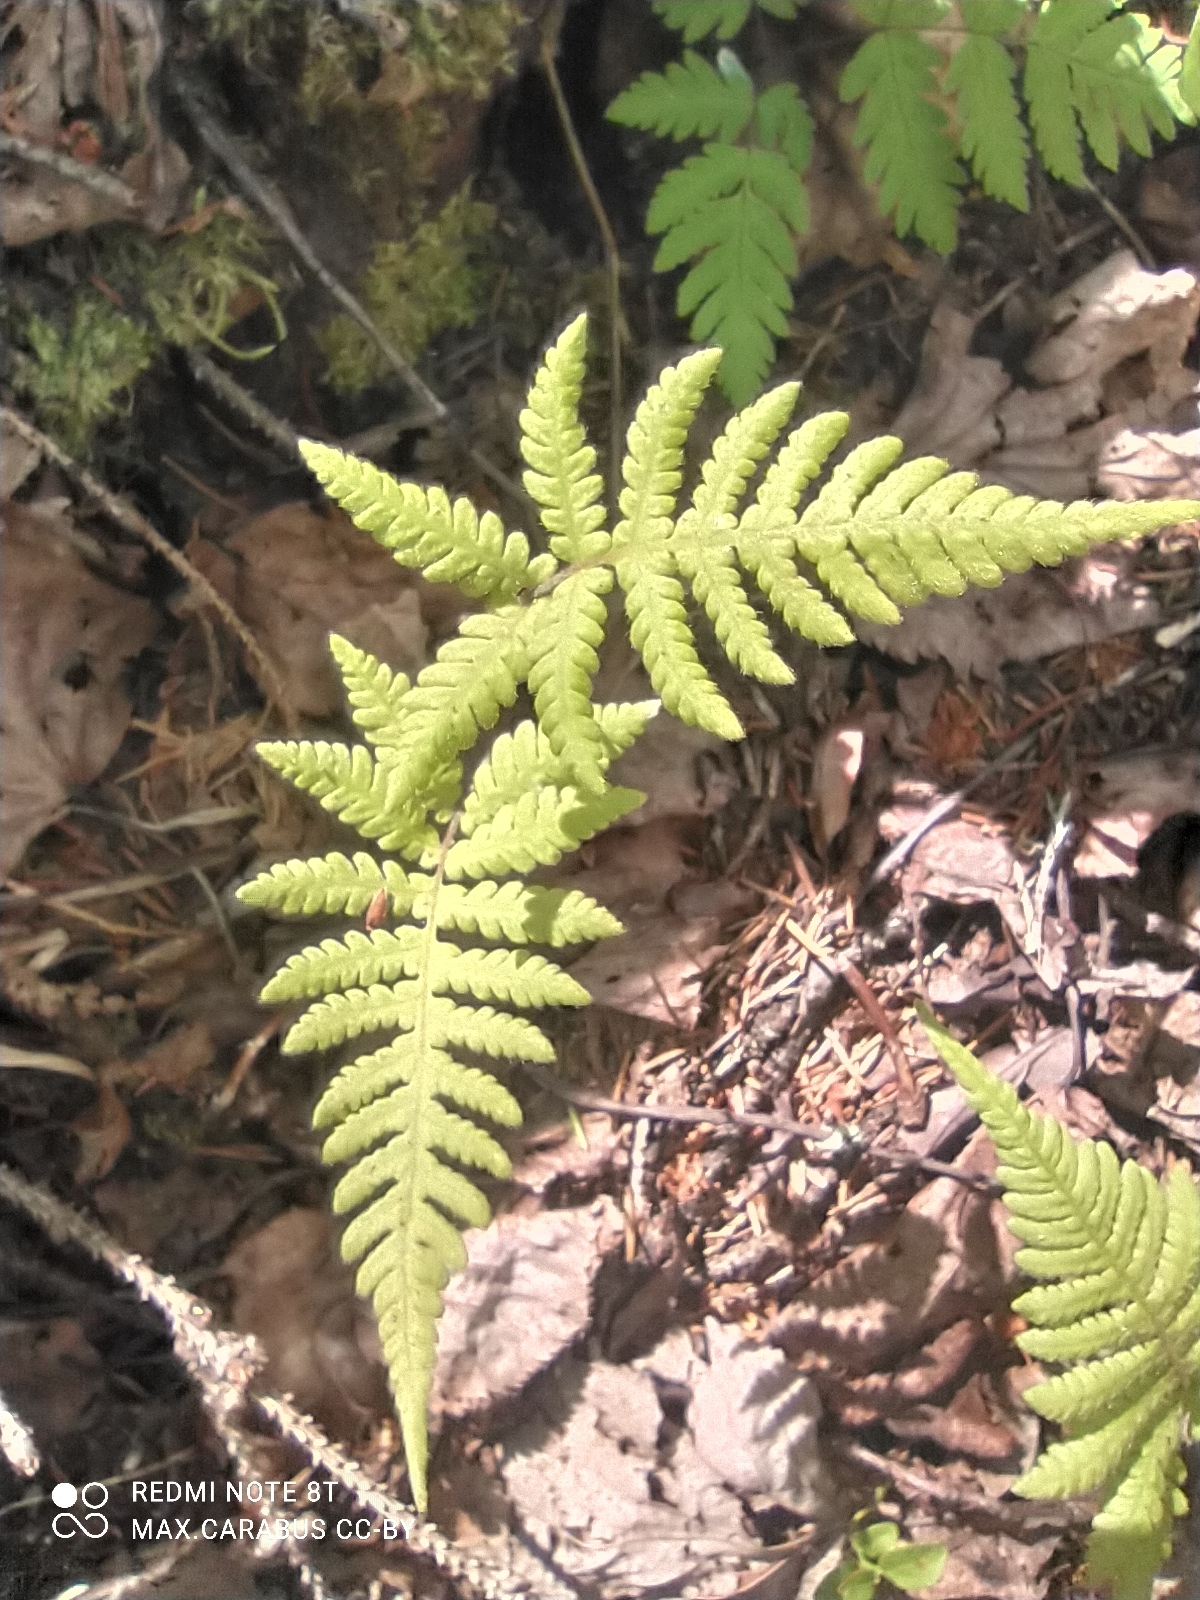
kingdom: Plantae
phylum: Tracheophyta
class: Polypodiopsida
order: Polypodiales
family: Thelypteridaceae
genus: Phegopteris
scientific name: Phegopteris connectilis
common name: Beech fern
